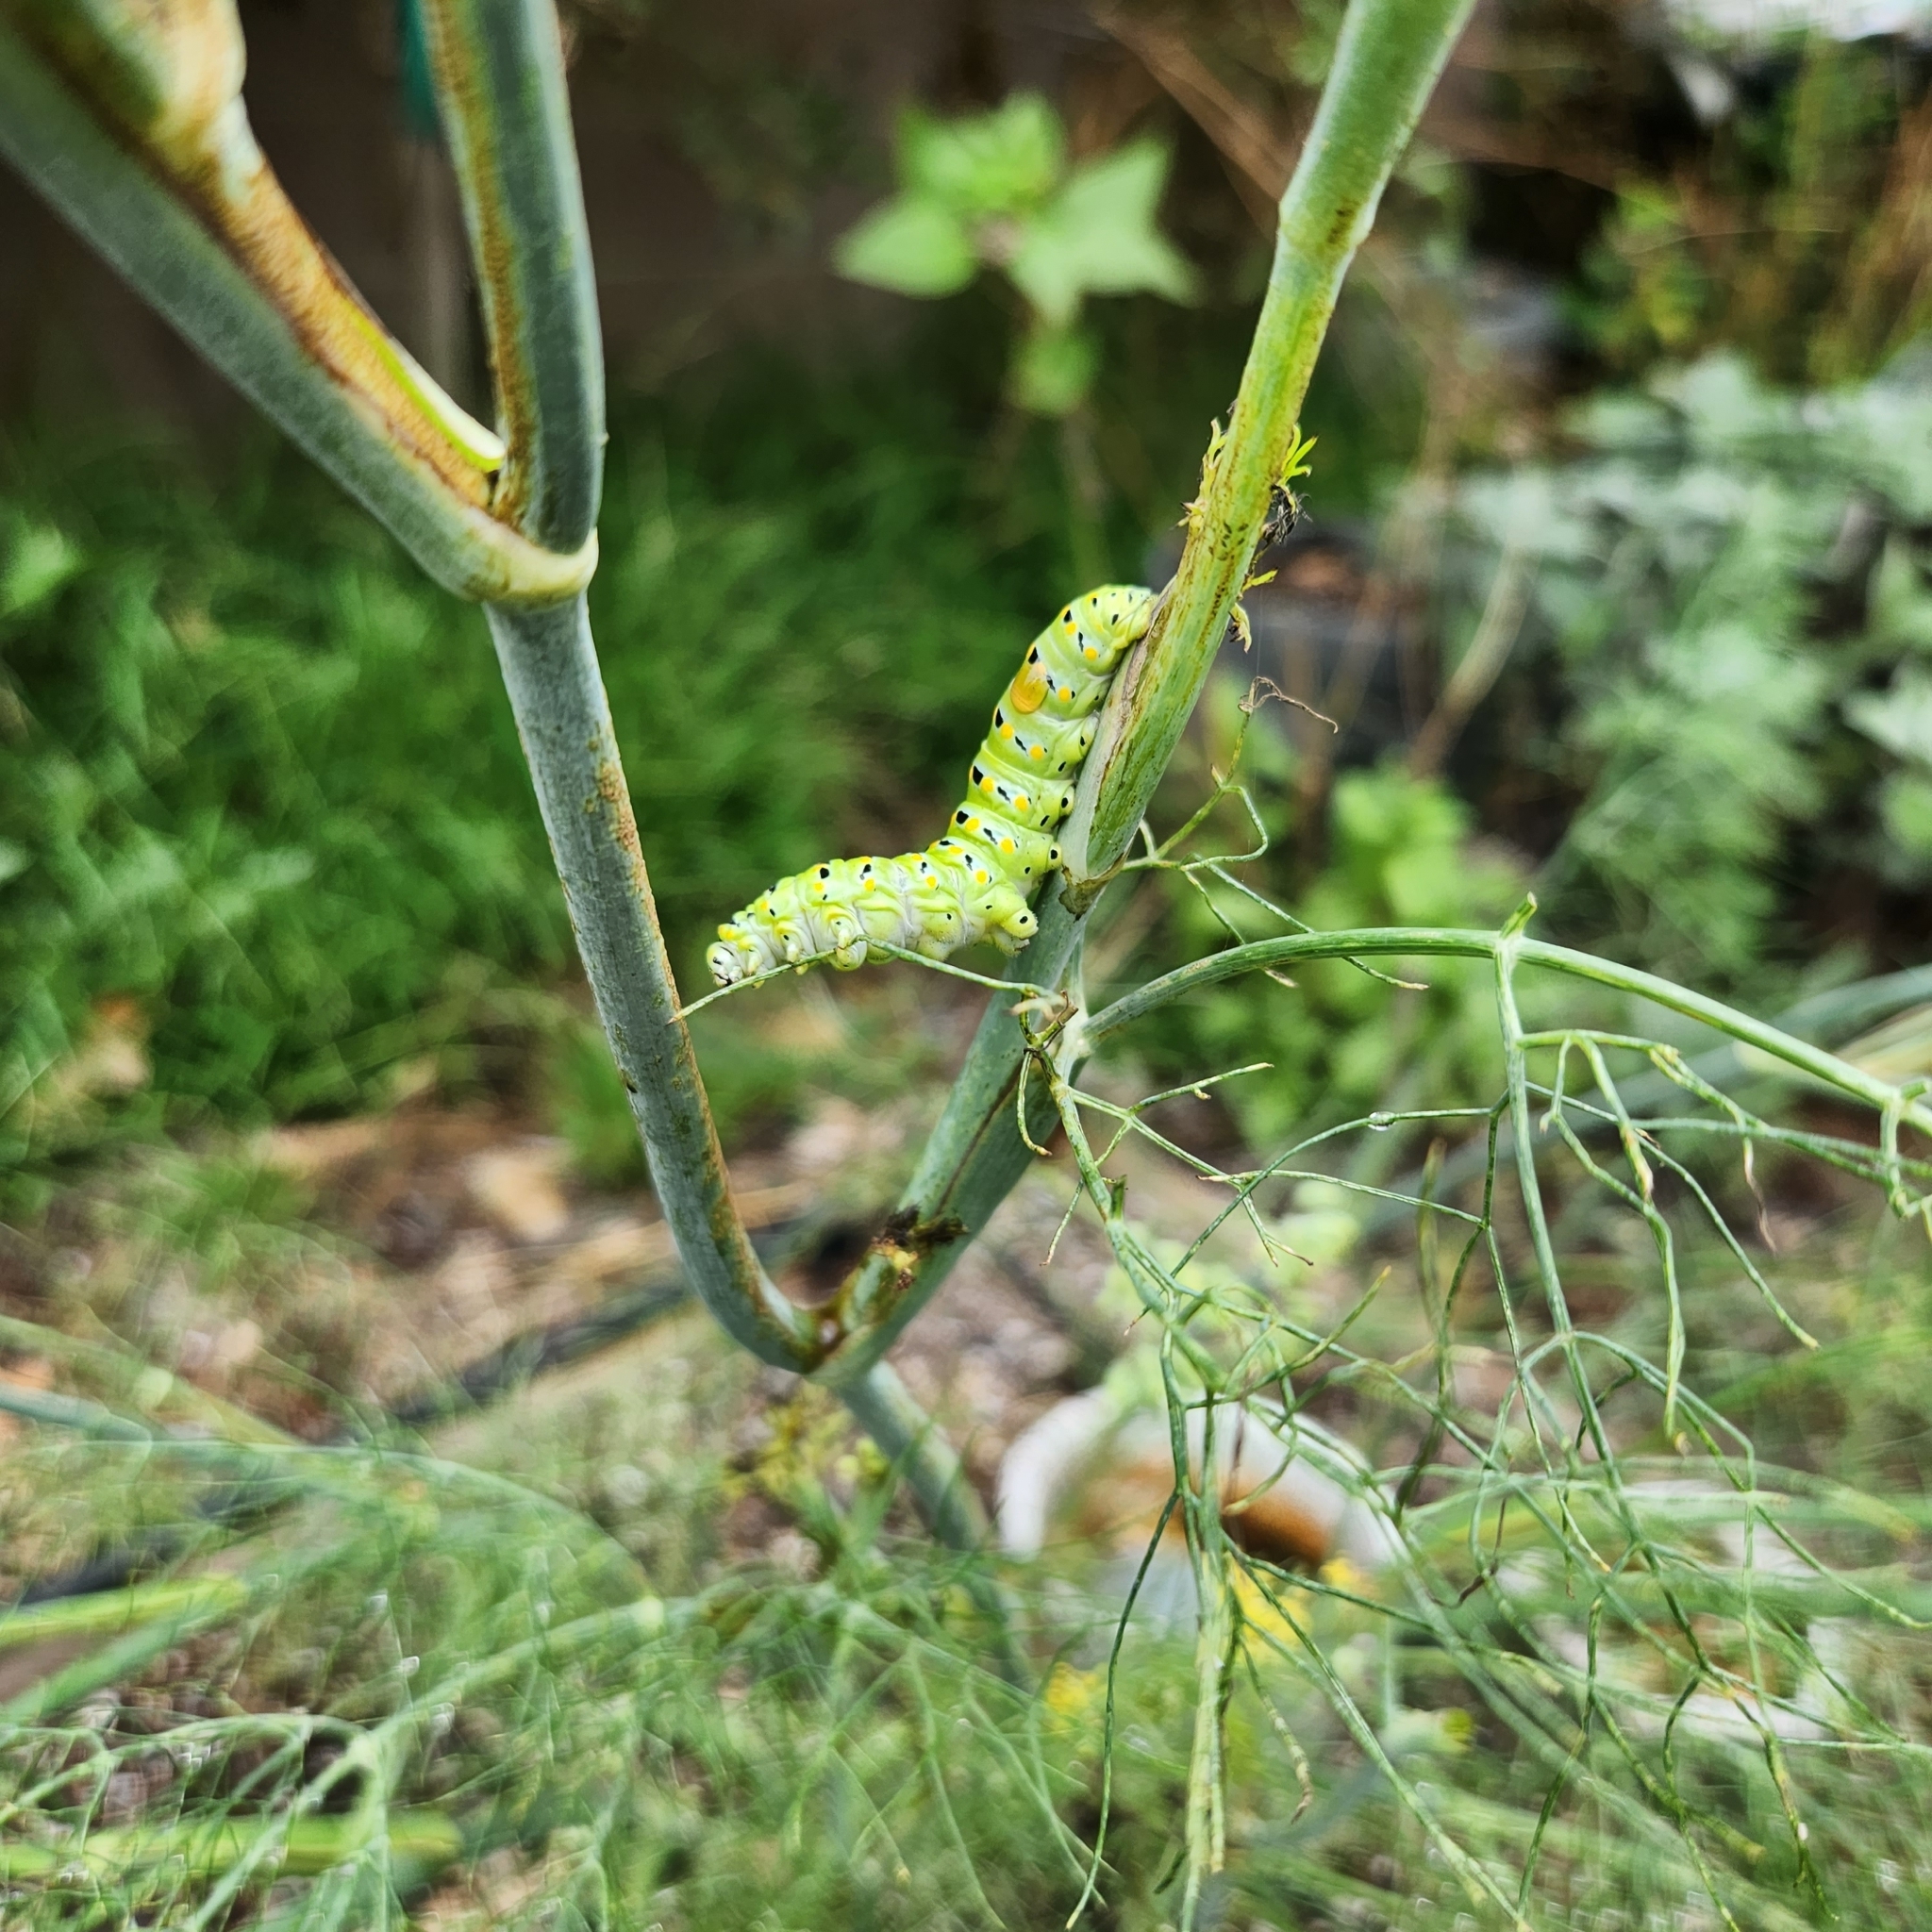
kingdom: Animalia
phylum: Arthropoda
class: Insecta
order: Lepidoptera
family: Papilionidae
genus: Papilio
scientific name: Papilio zelicaon
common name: Anise swallowtail
